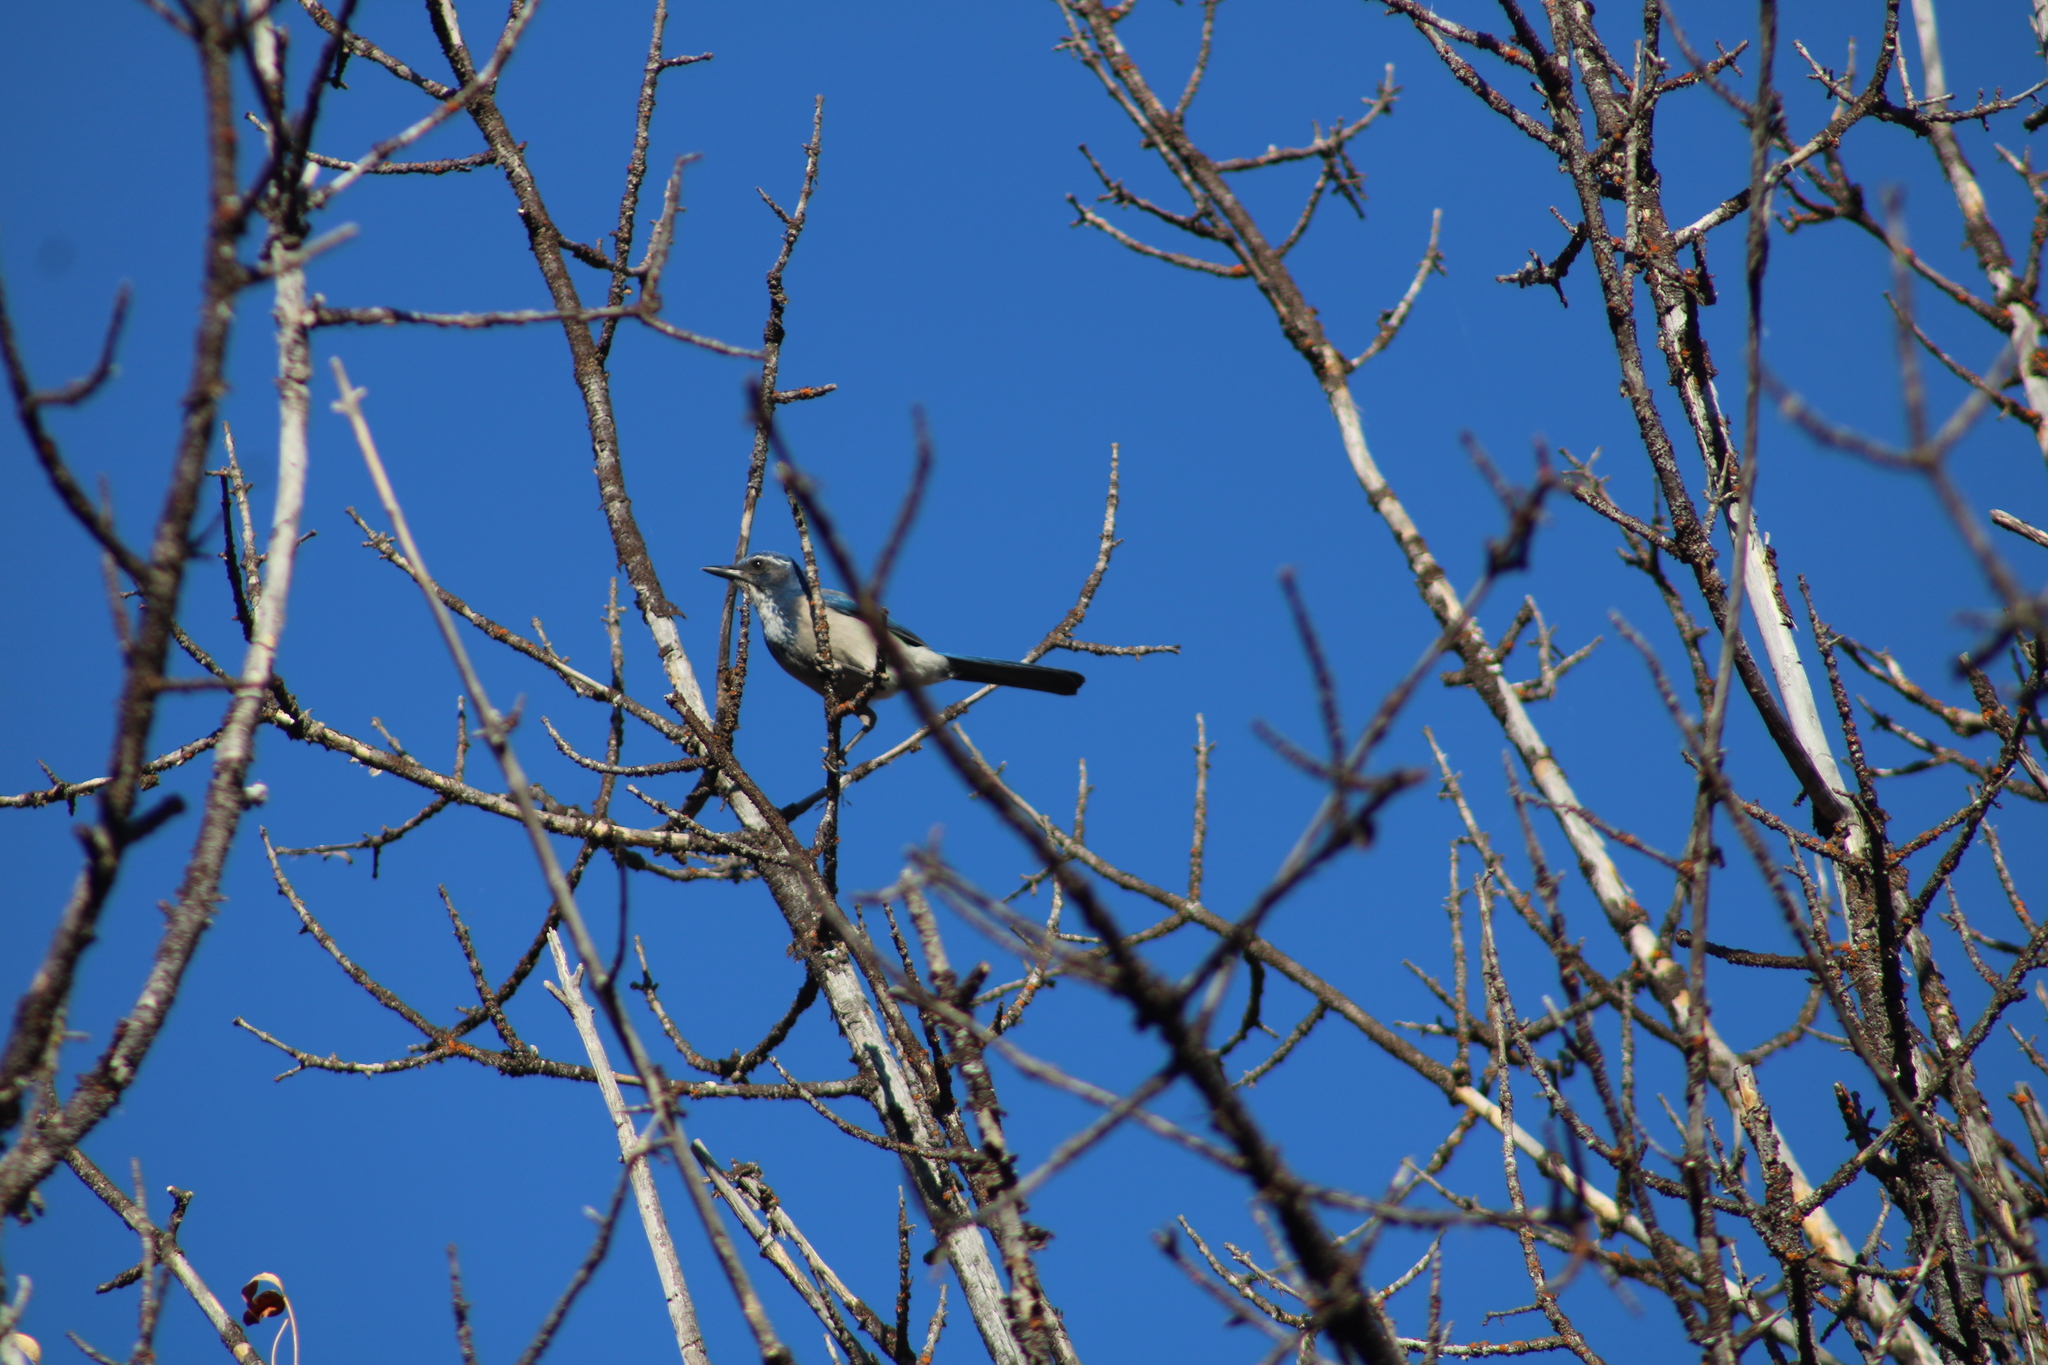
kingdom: Animalia
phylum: Chordata
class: Aves
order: Passeriformes
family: Corvidae
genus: Aphelocoma
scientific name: Aphelocoma californica
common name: California scrub-jay
